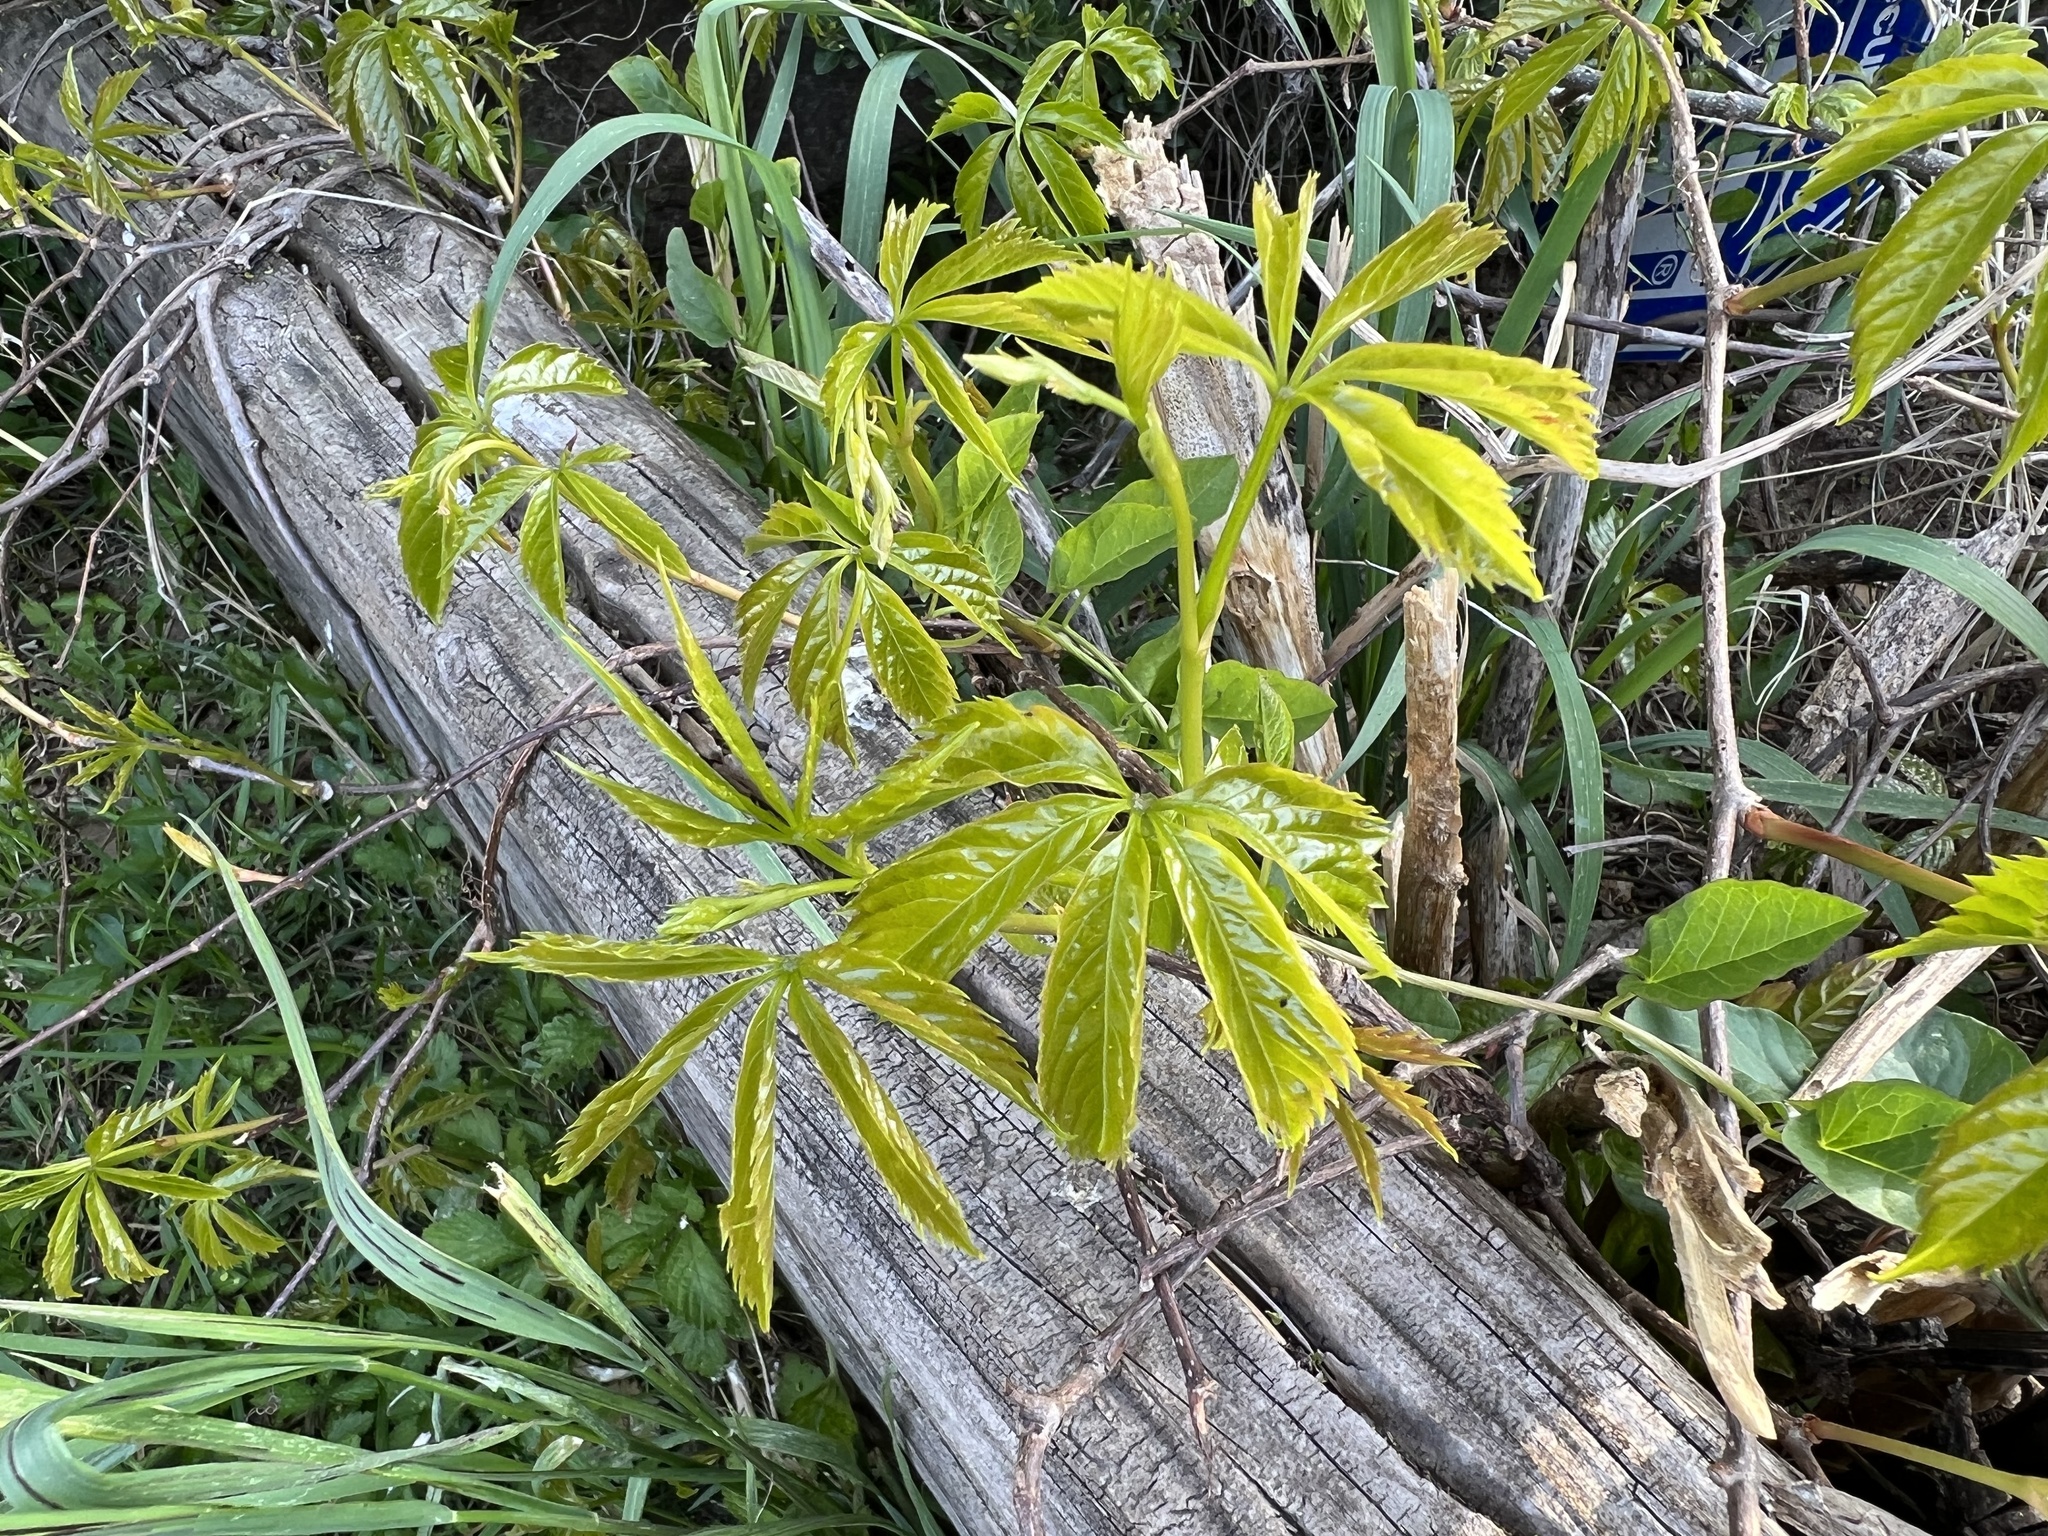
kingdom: Plantae
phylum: Tracheophyta
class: Magnoliopsida
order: Vitales
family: Vitaceae
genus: Parthenocissus
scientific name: Parthenocissus quinquefolia
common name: Virginia-creeper
